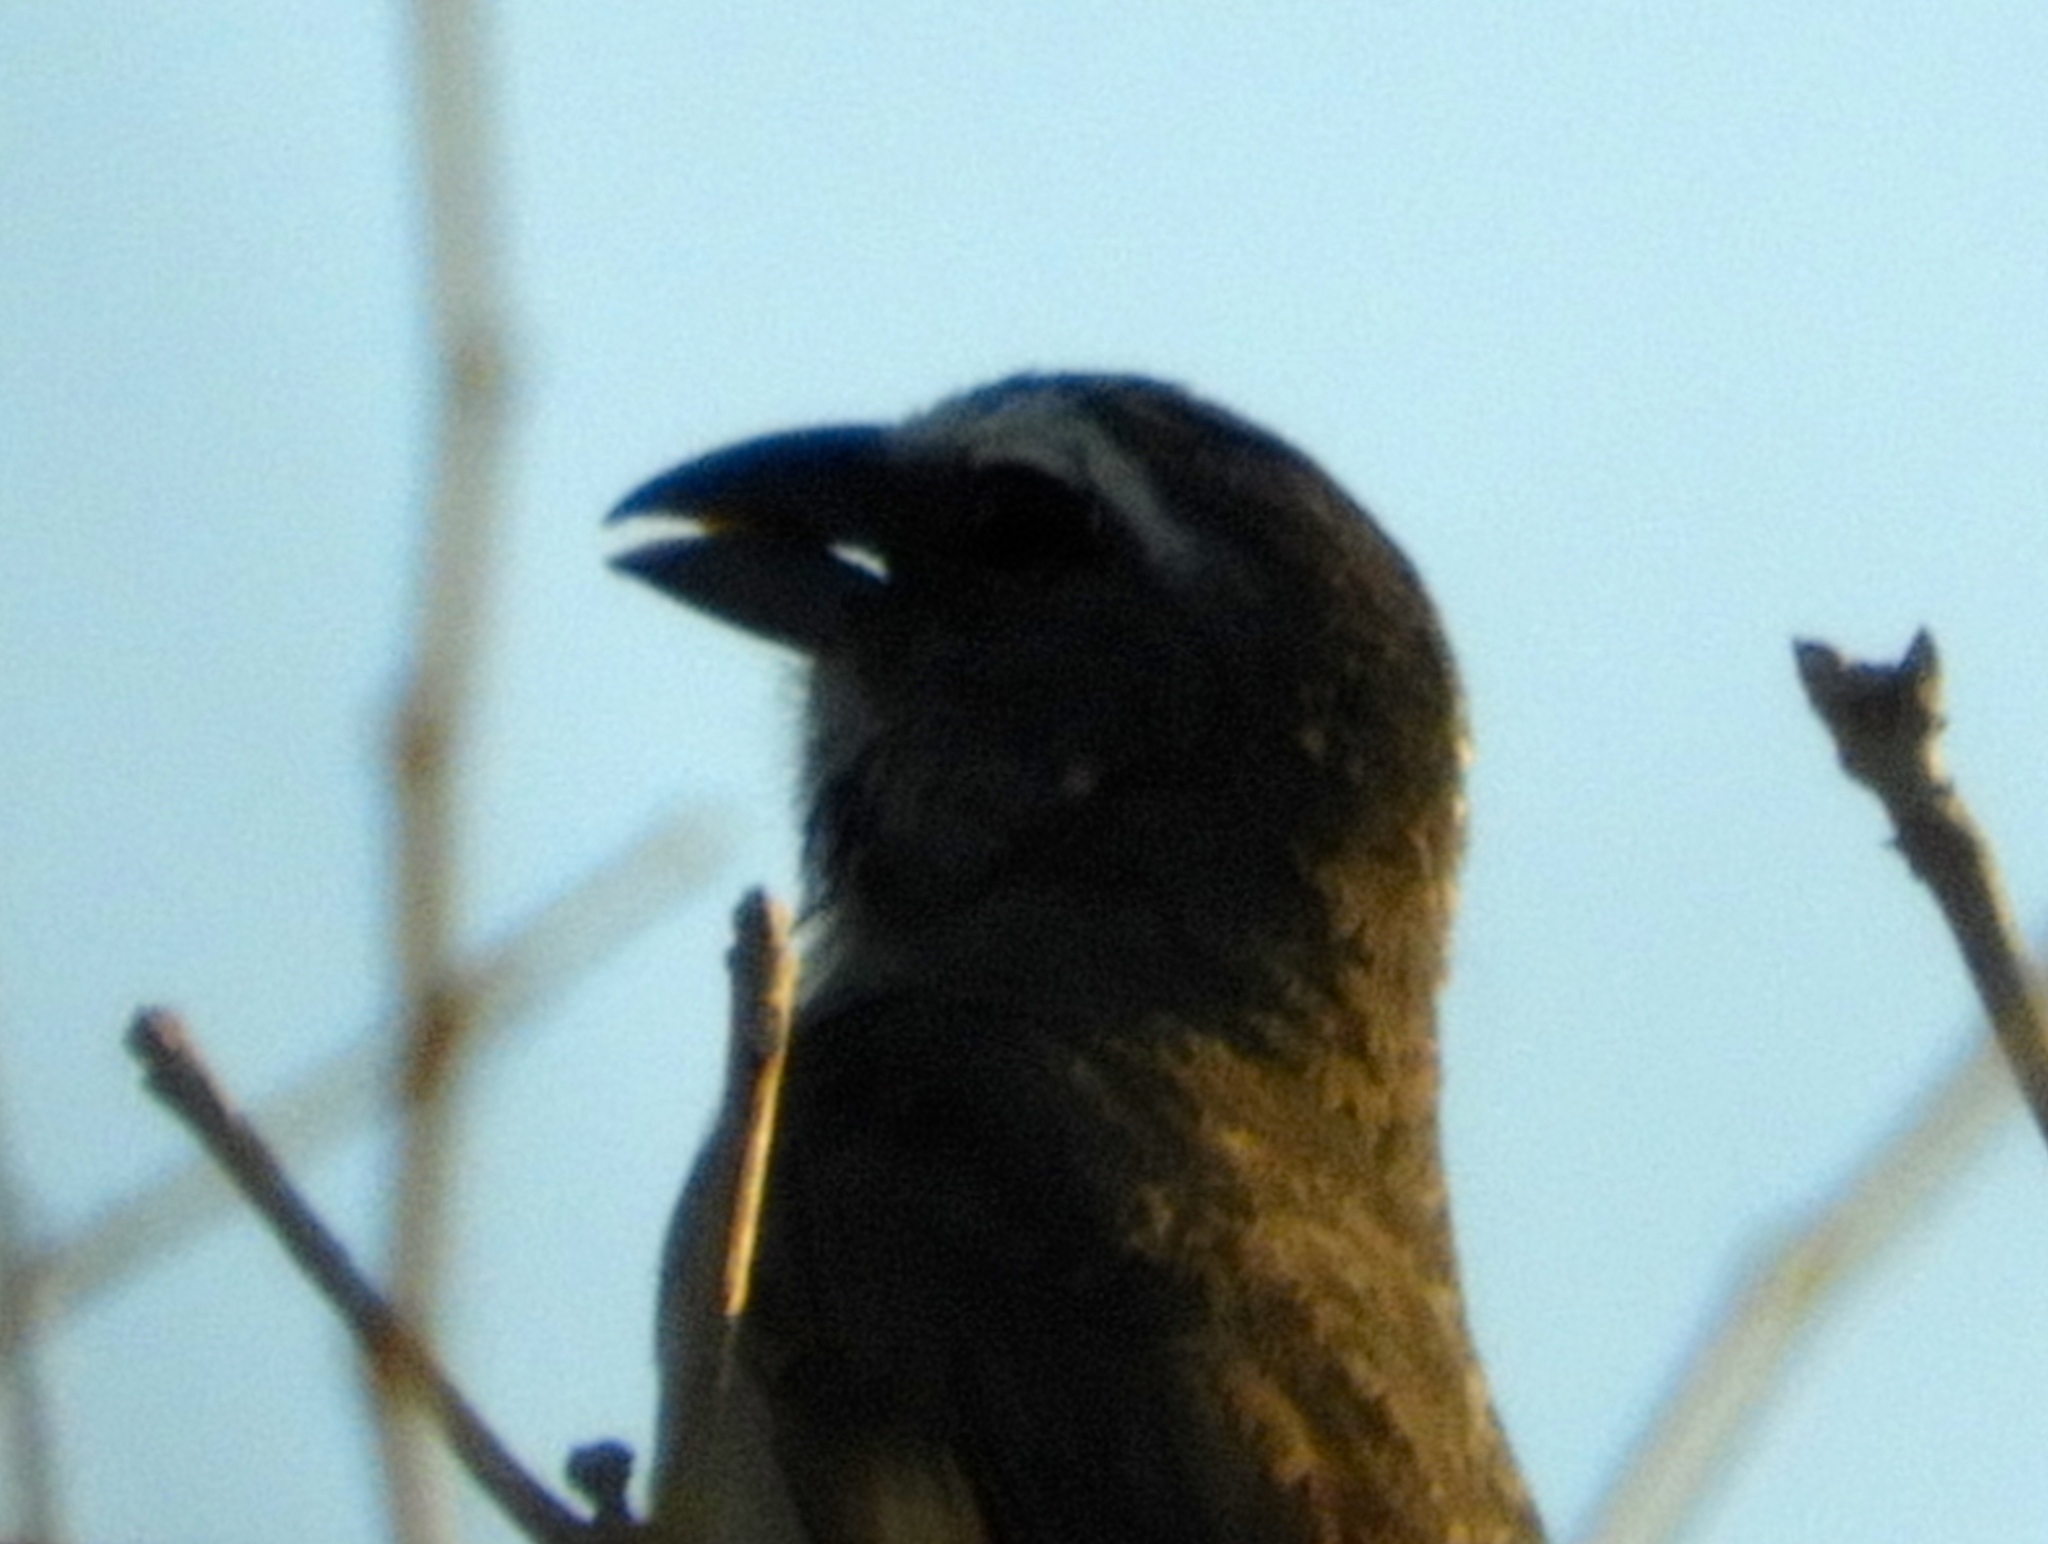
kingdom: Animalia
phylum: Chordata
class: Aves
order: Passeriformes
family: Thraupidae
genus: Saltator
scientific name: Saltator grandis
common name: Cinnamon-bellied saltator
